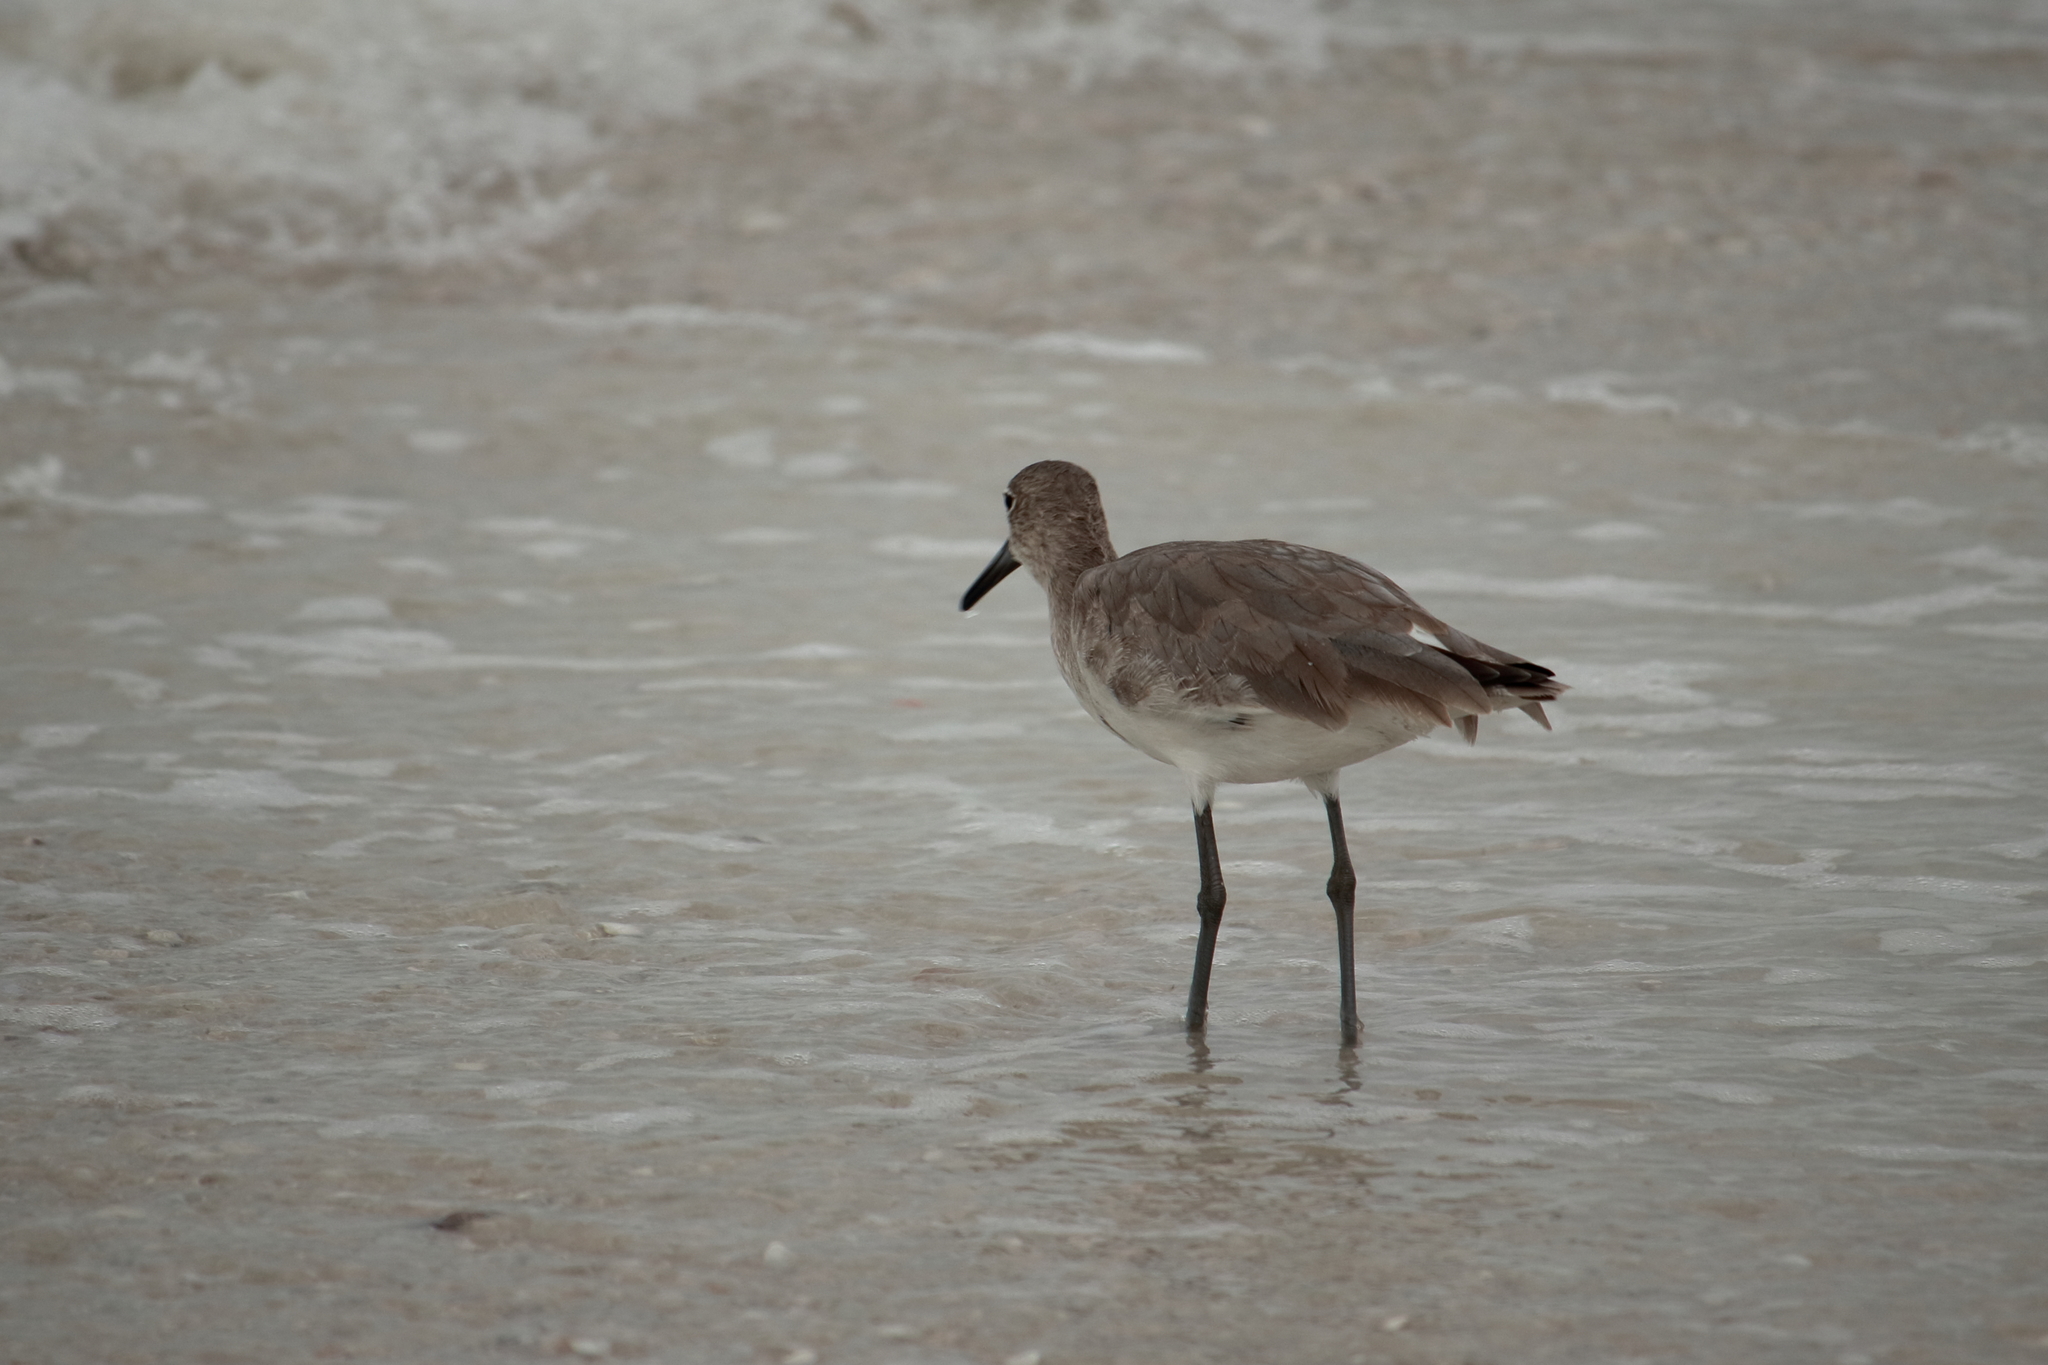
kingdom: Animalia
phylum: Chordata
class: Aves
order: Charadriiformes
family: Scolopacidae
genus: Tringa
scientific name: Tringa semipalmata
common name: Willet
